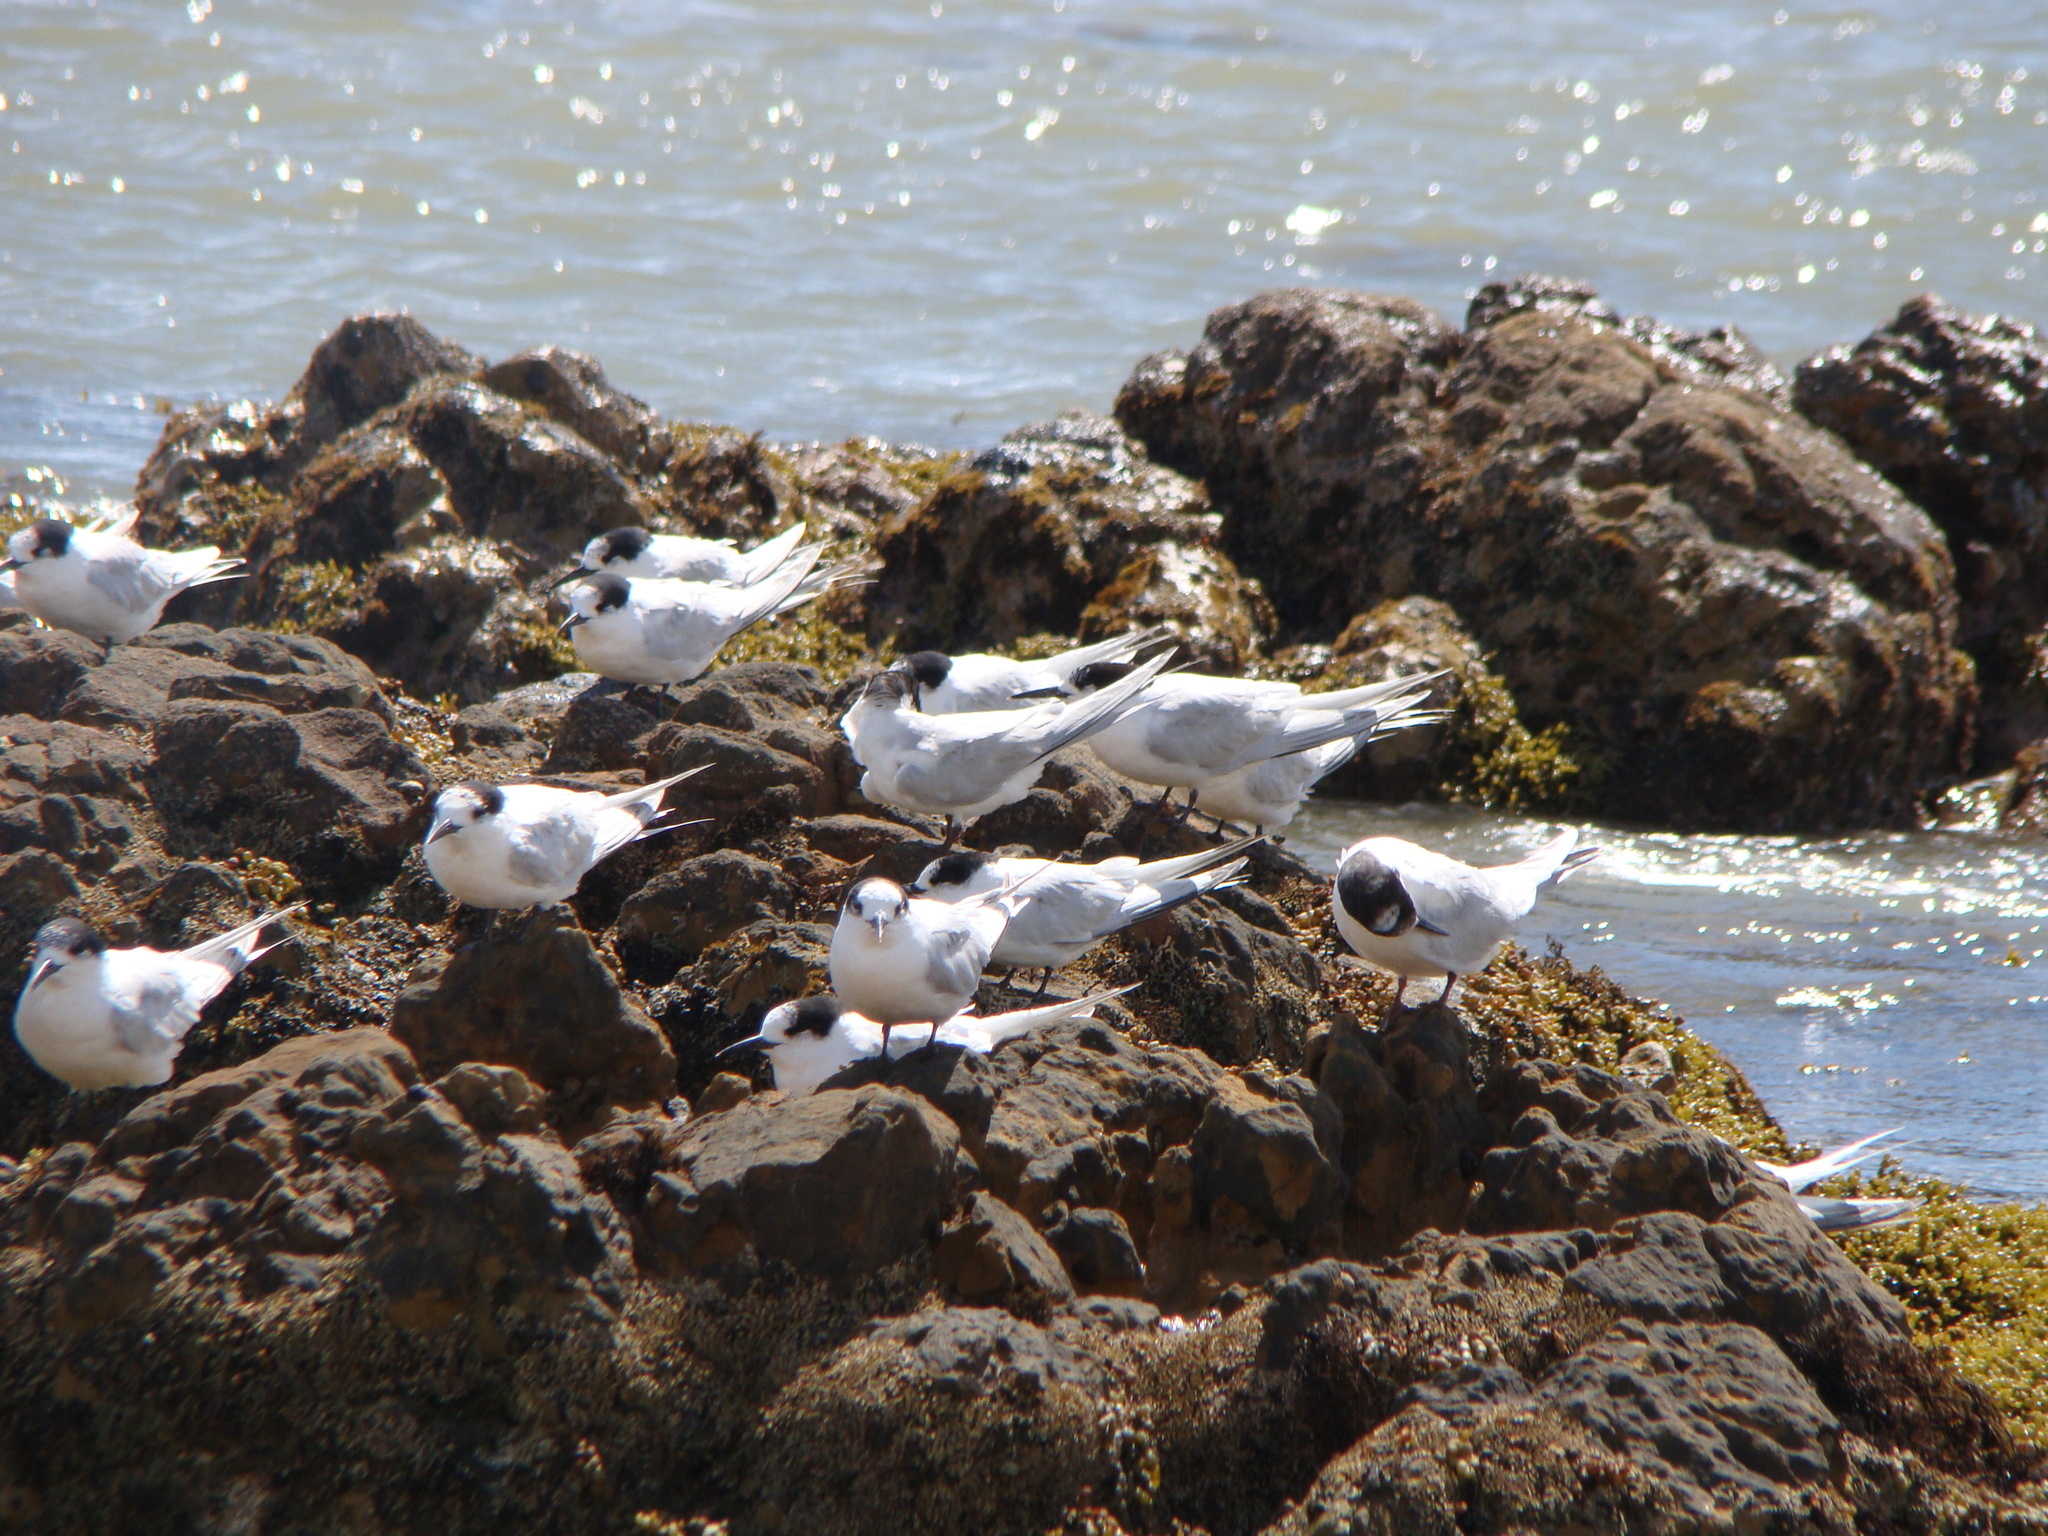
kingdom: Animalia
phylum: Chordata
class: Aves
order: Charadriiformes
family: Laridae
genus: Sterna
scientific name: Sterna striata
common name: White-fronted tern
